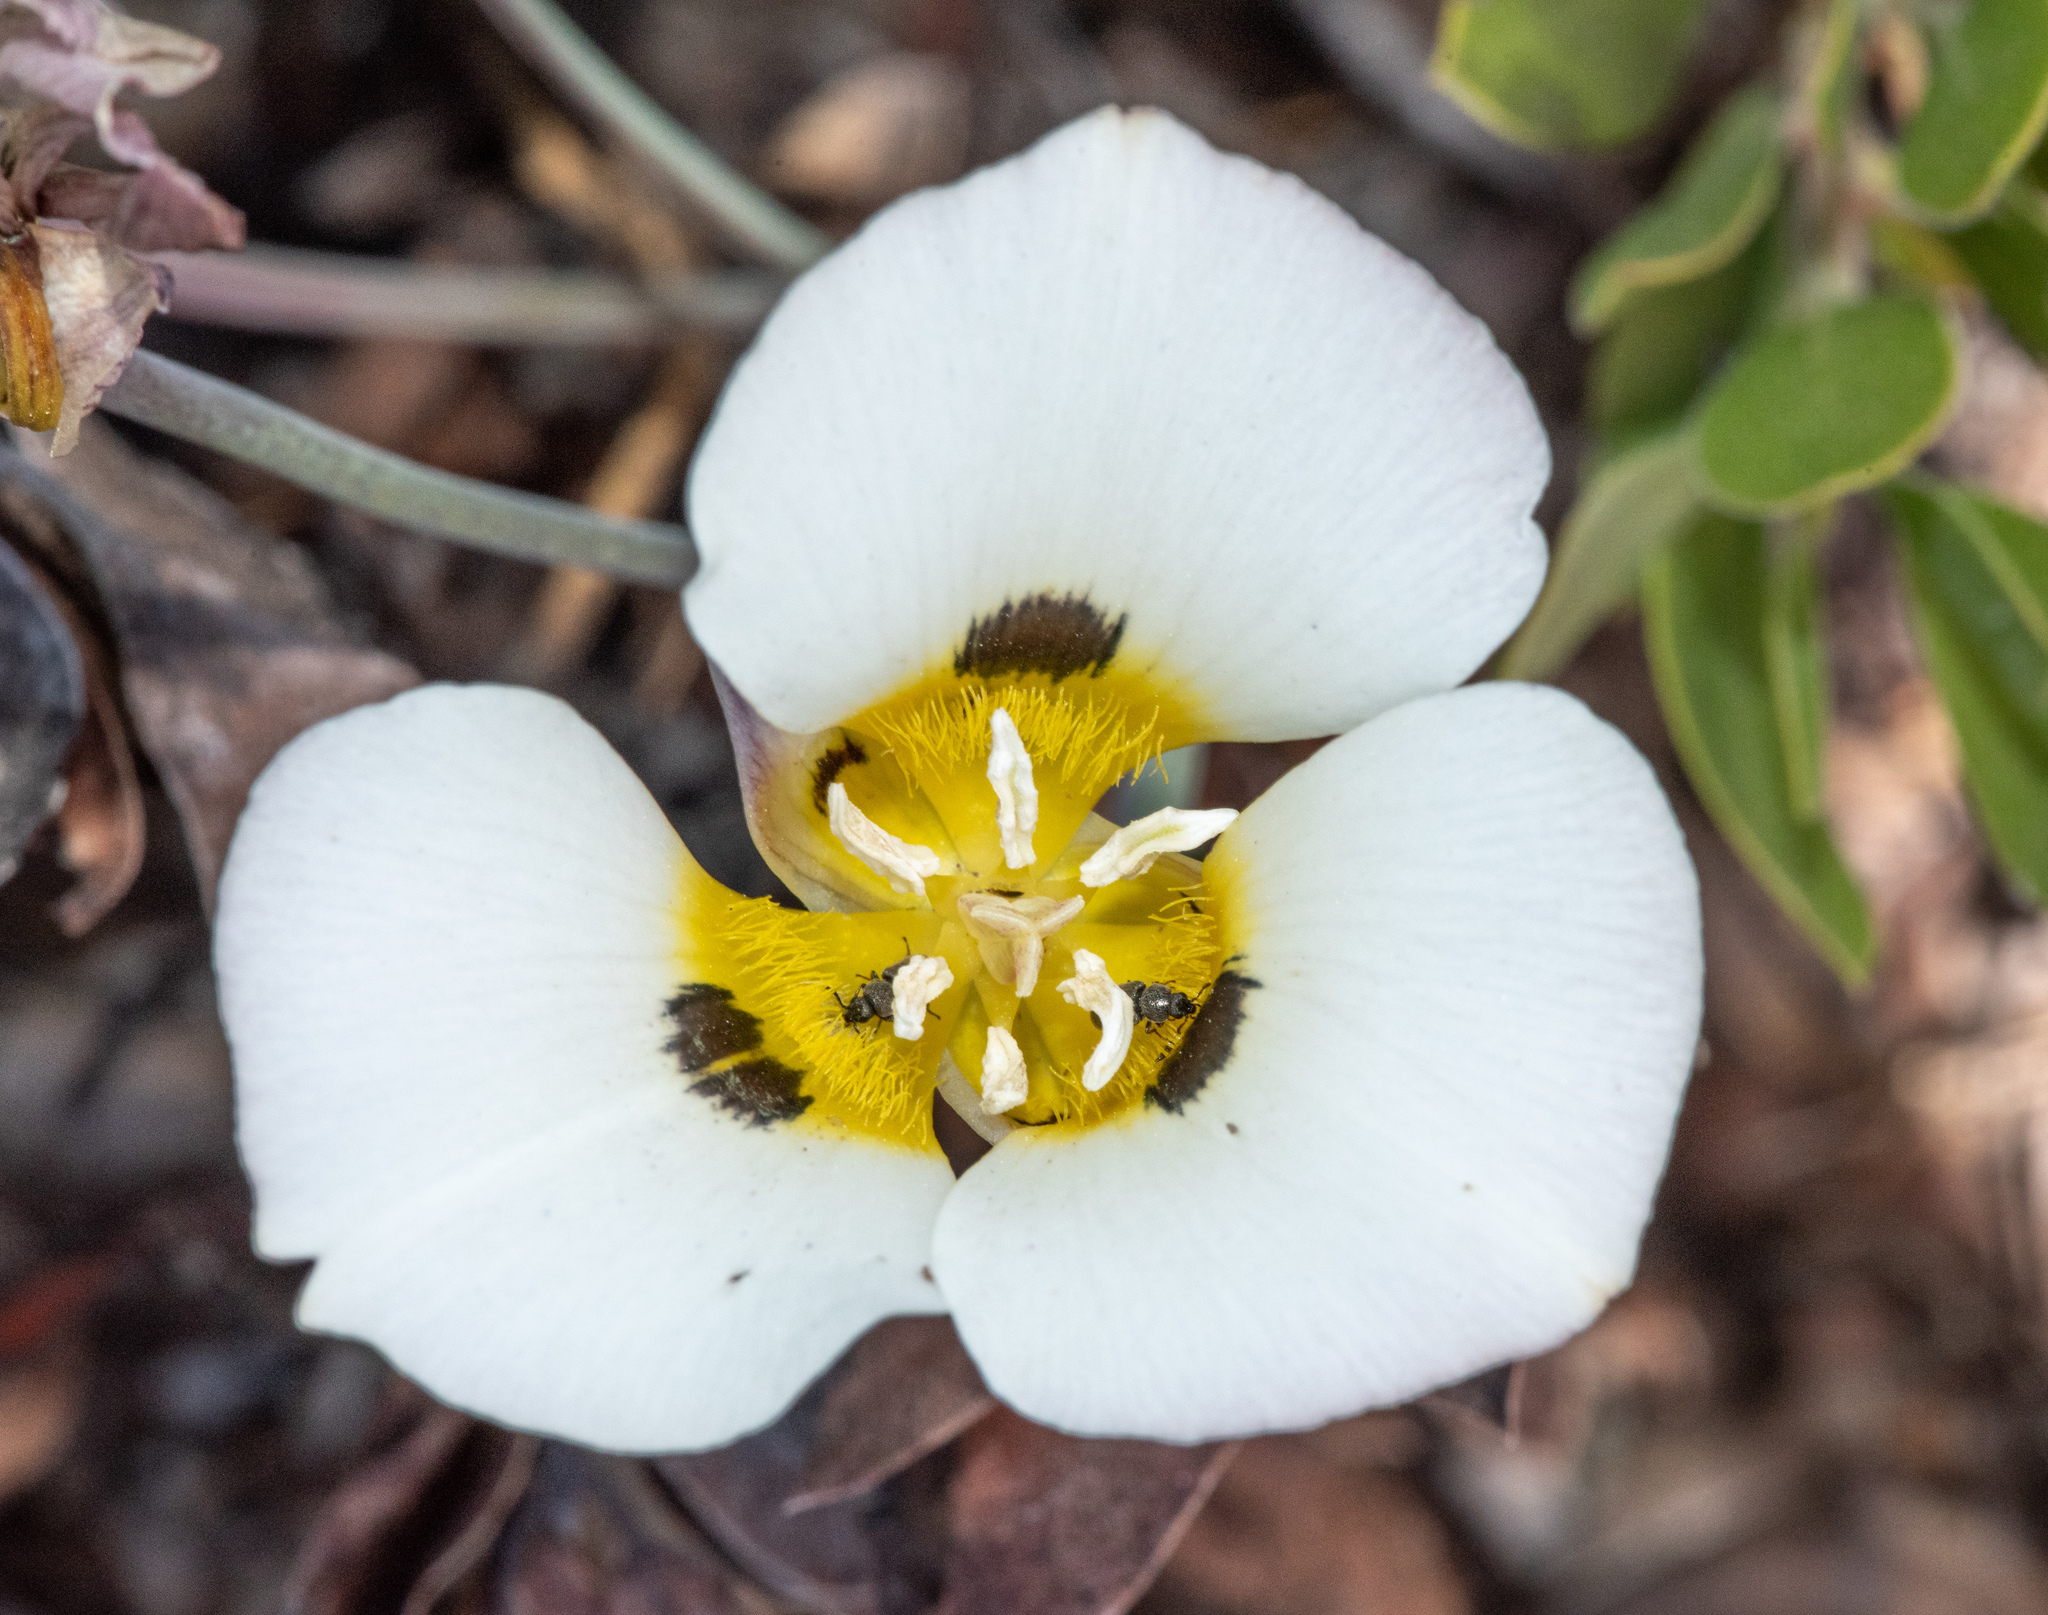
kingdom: Plantae
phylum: Tracheophyta
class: Liliopsida
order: Liliales
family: Liliaceae
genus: Calochortus
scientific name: Calochortus leichtlinii
